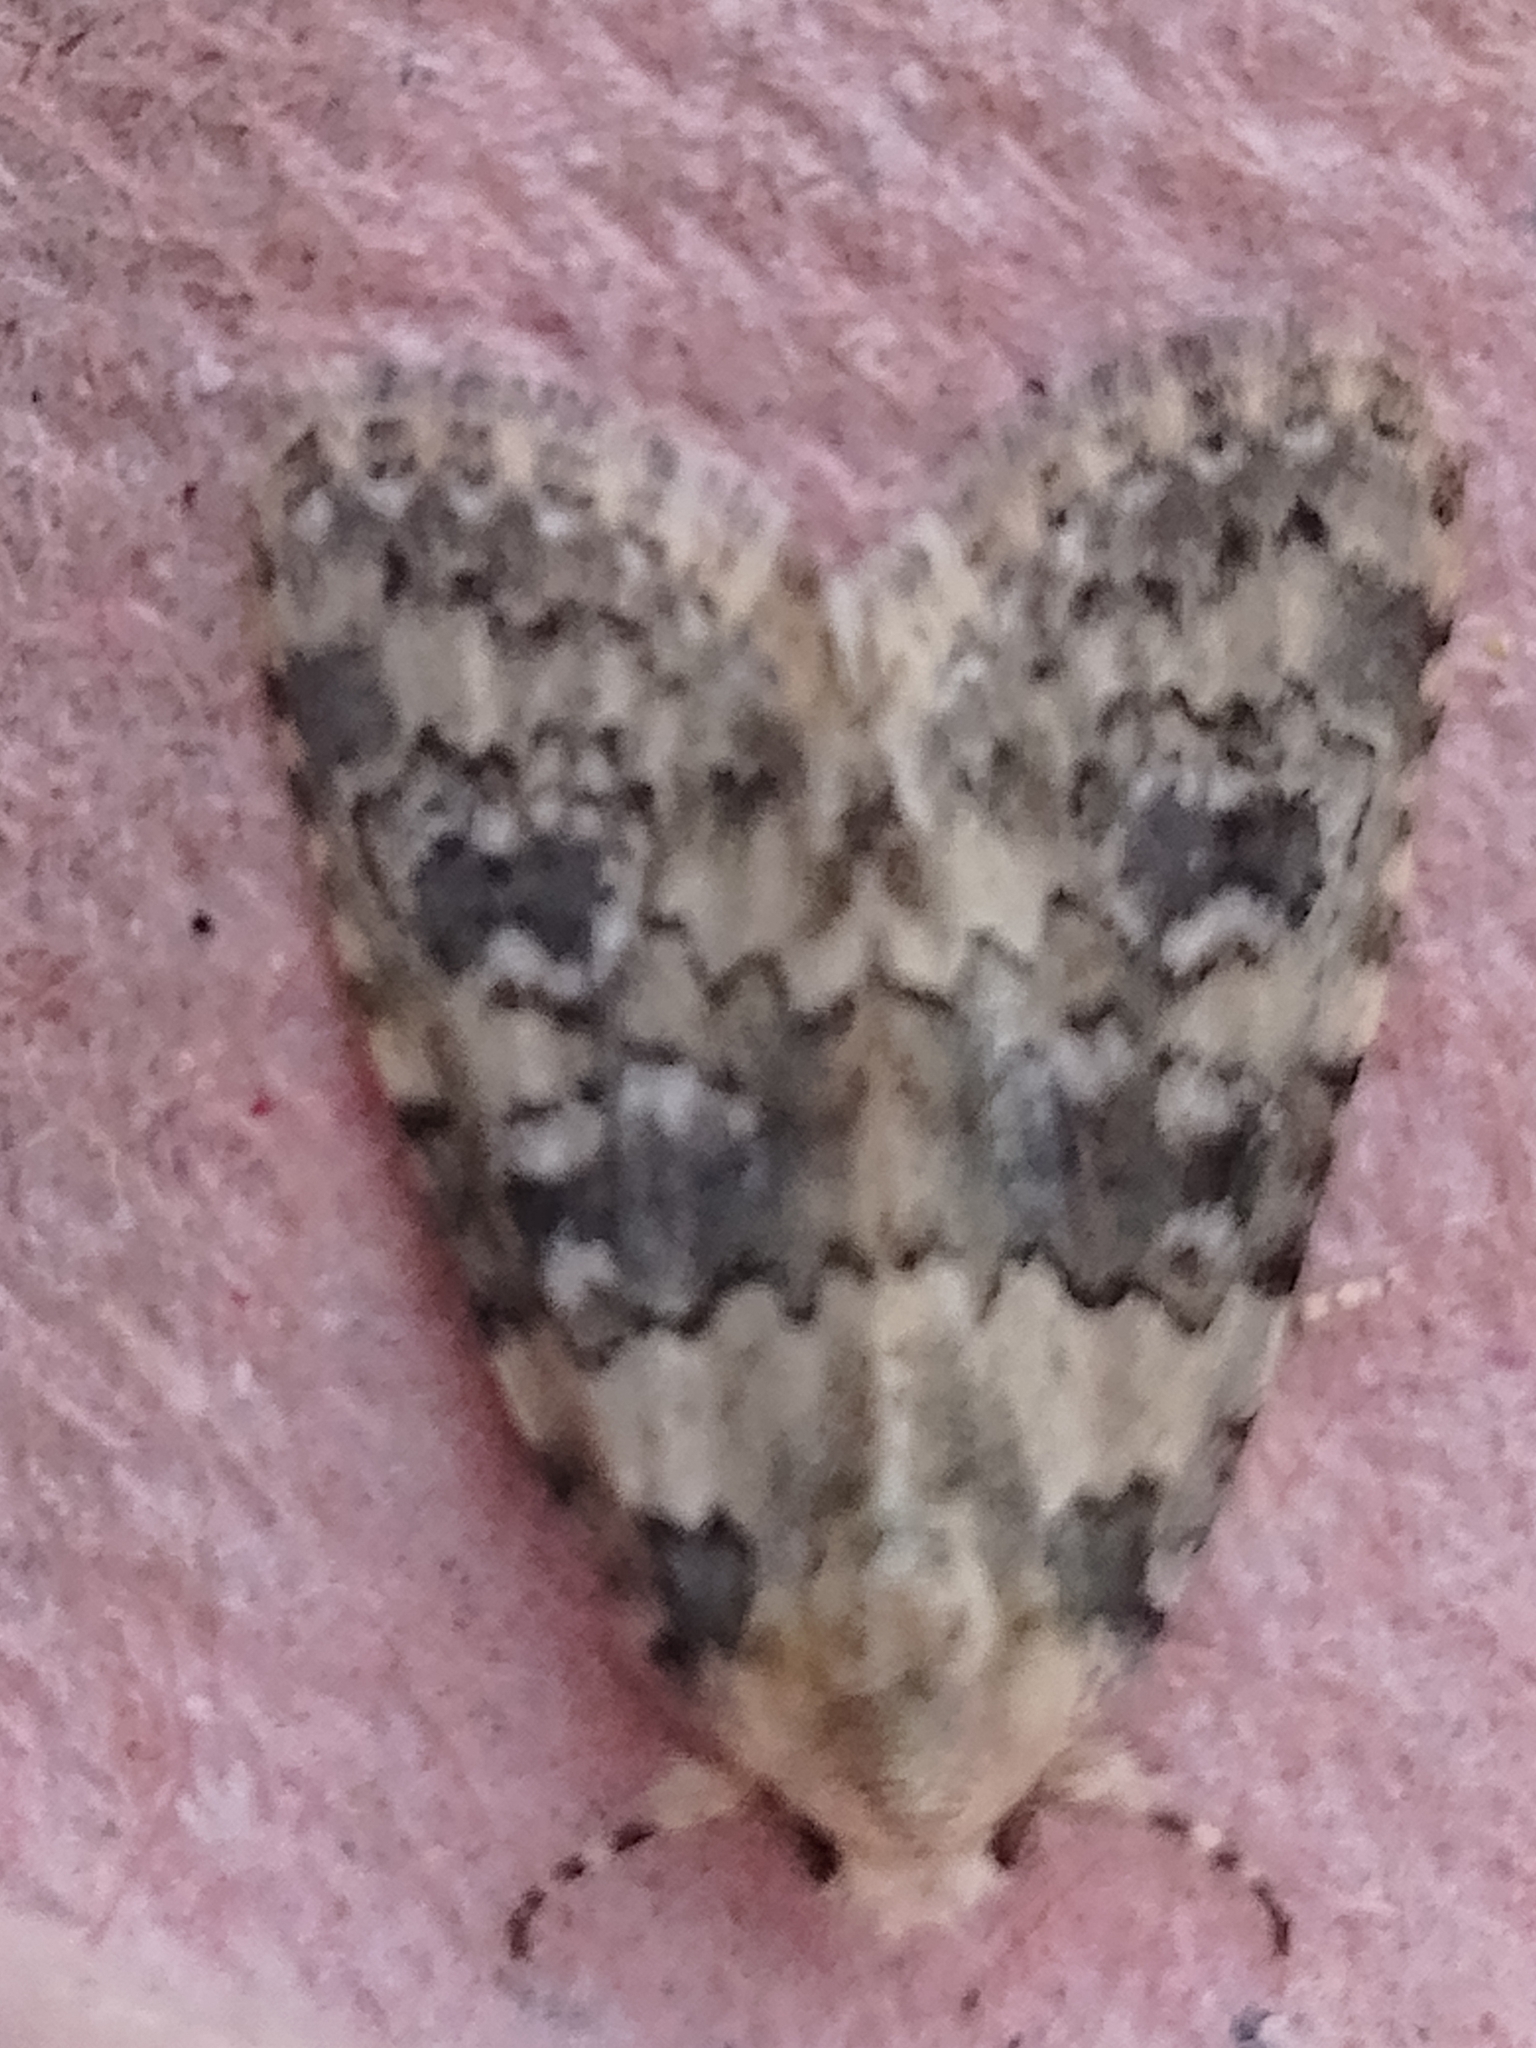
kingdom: Animalia
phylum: Arthropoda
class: Insecta
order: Lepidoptera
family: Noctuidae
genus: Bryophila
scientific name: Bryophila domestica
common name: Marbled beauty
